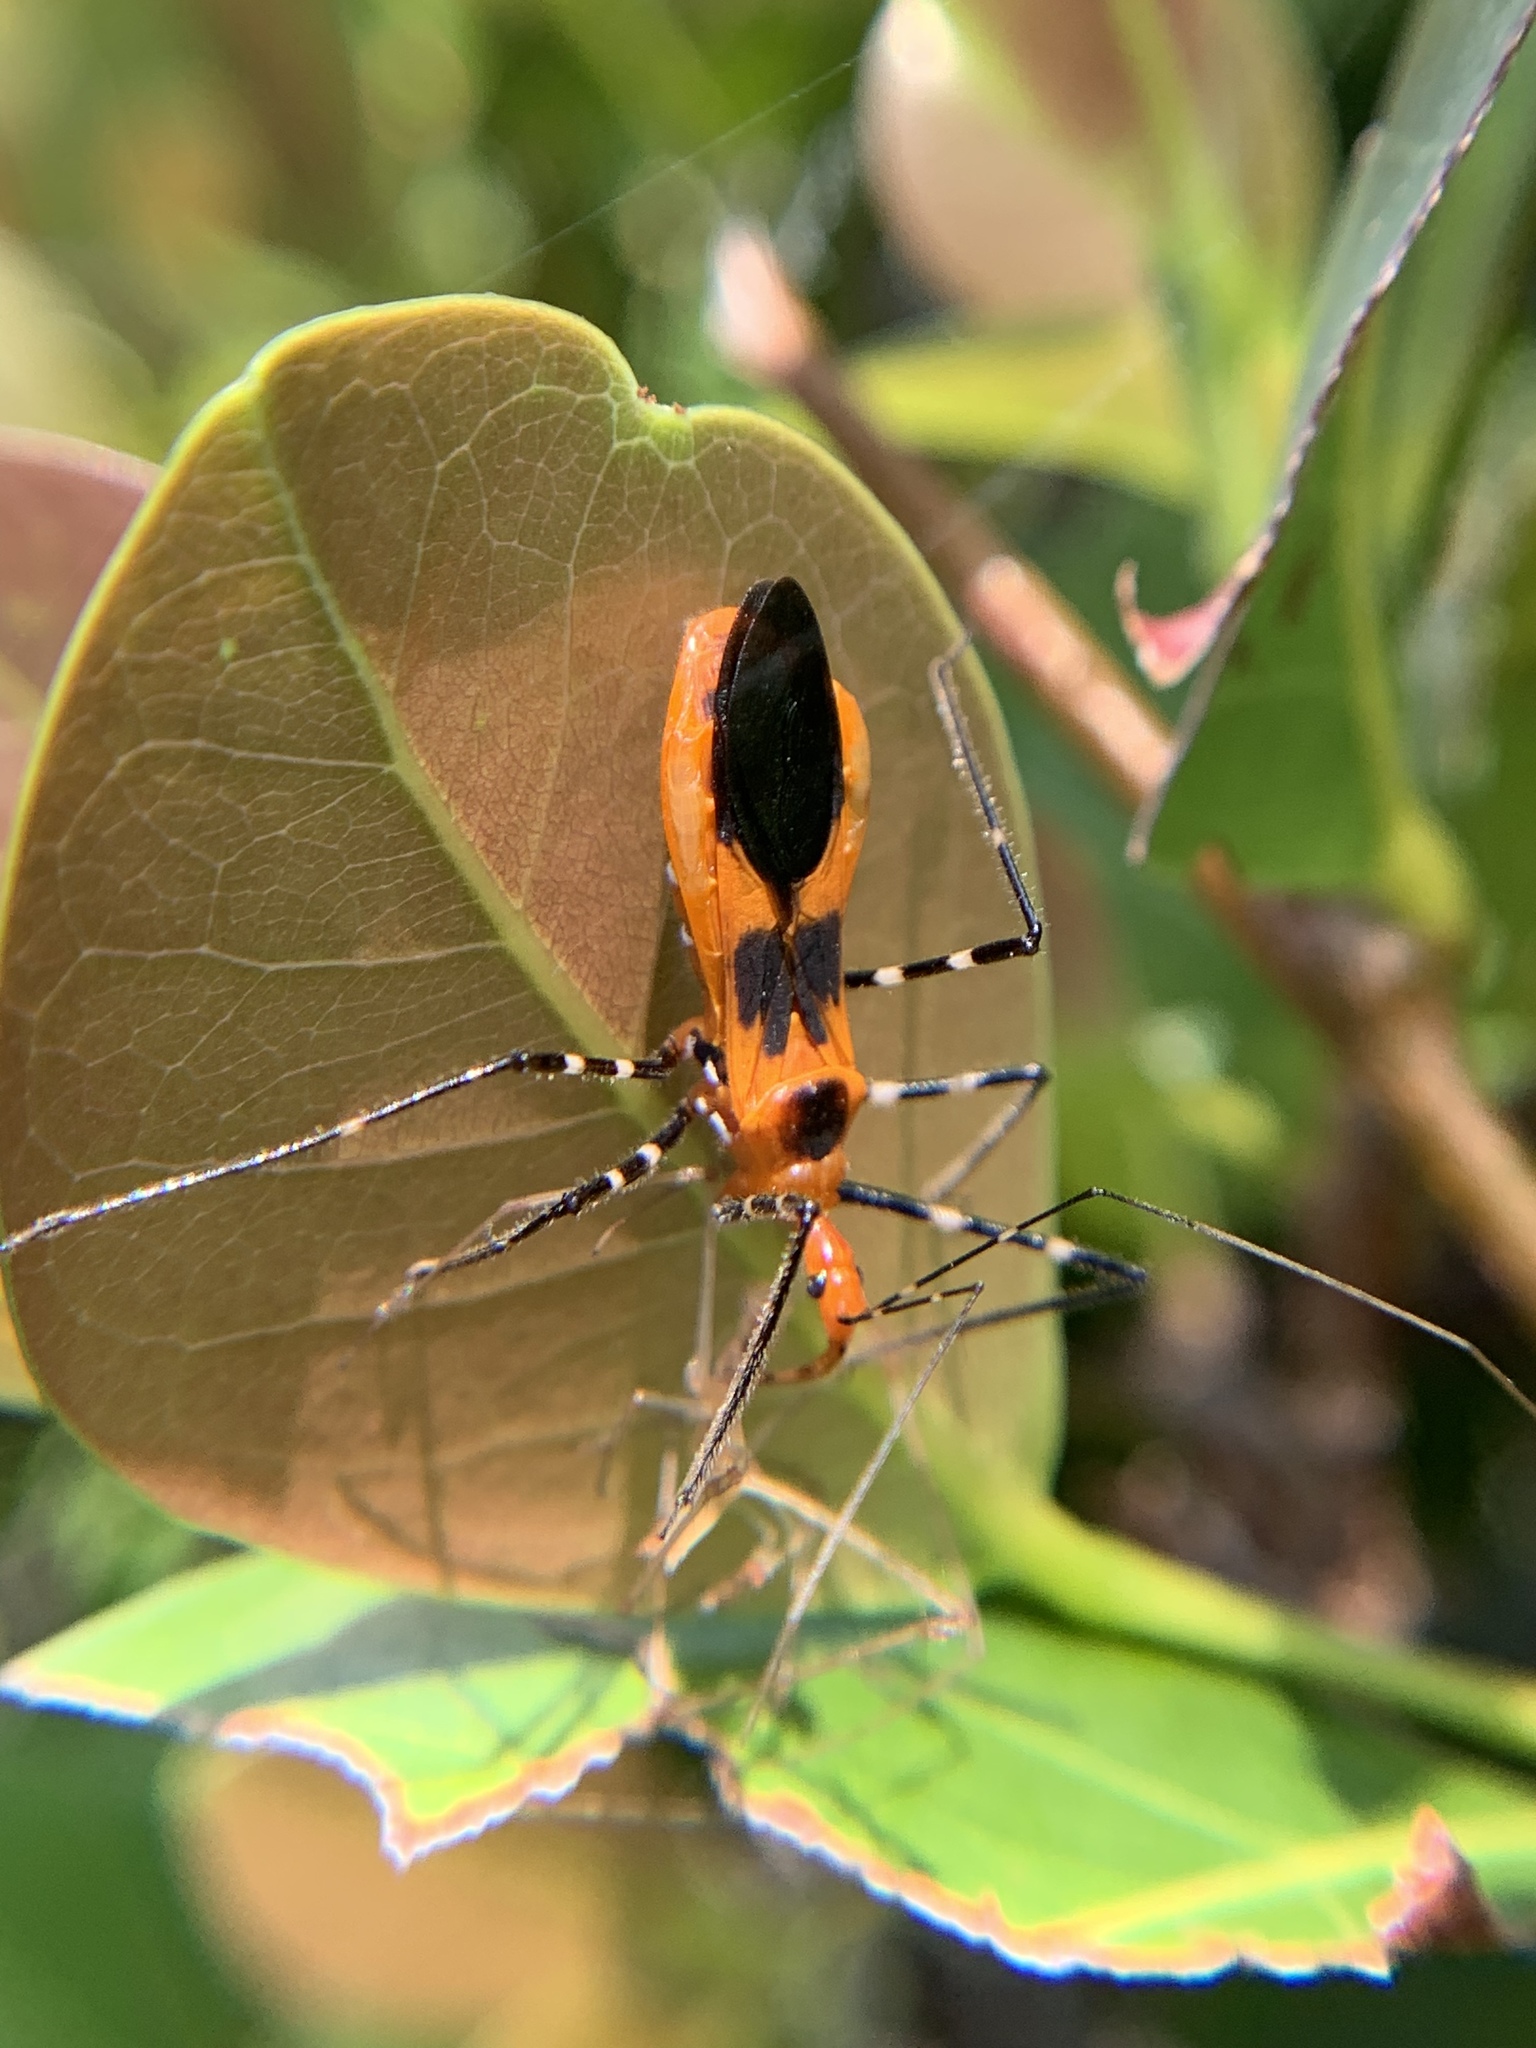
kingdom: Animalia
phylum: Arthropoda
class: Insecta
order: Hemiptera
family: Reduviidae
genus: Zelus
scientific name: Zelus longipes
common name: Milkweed assassin bug
